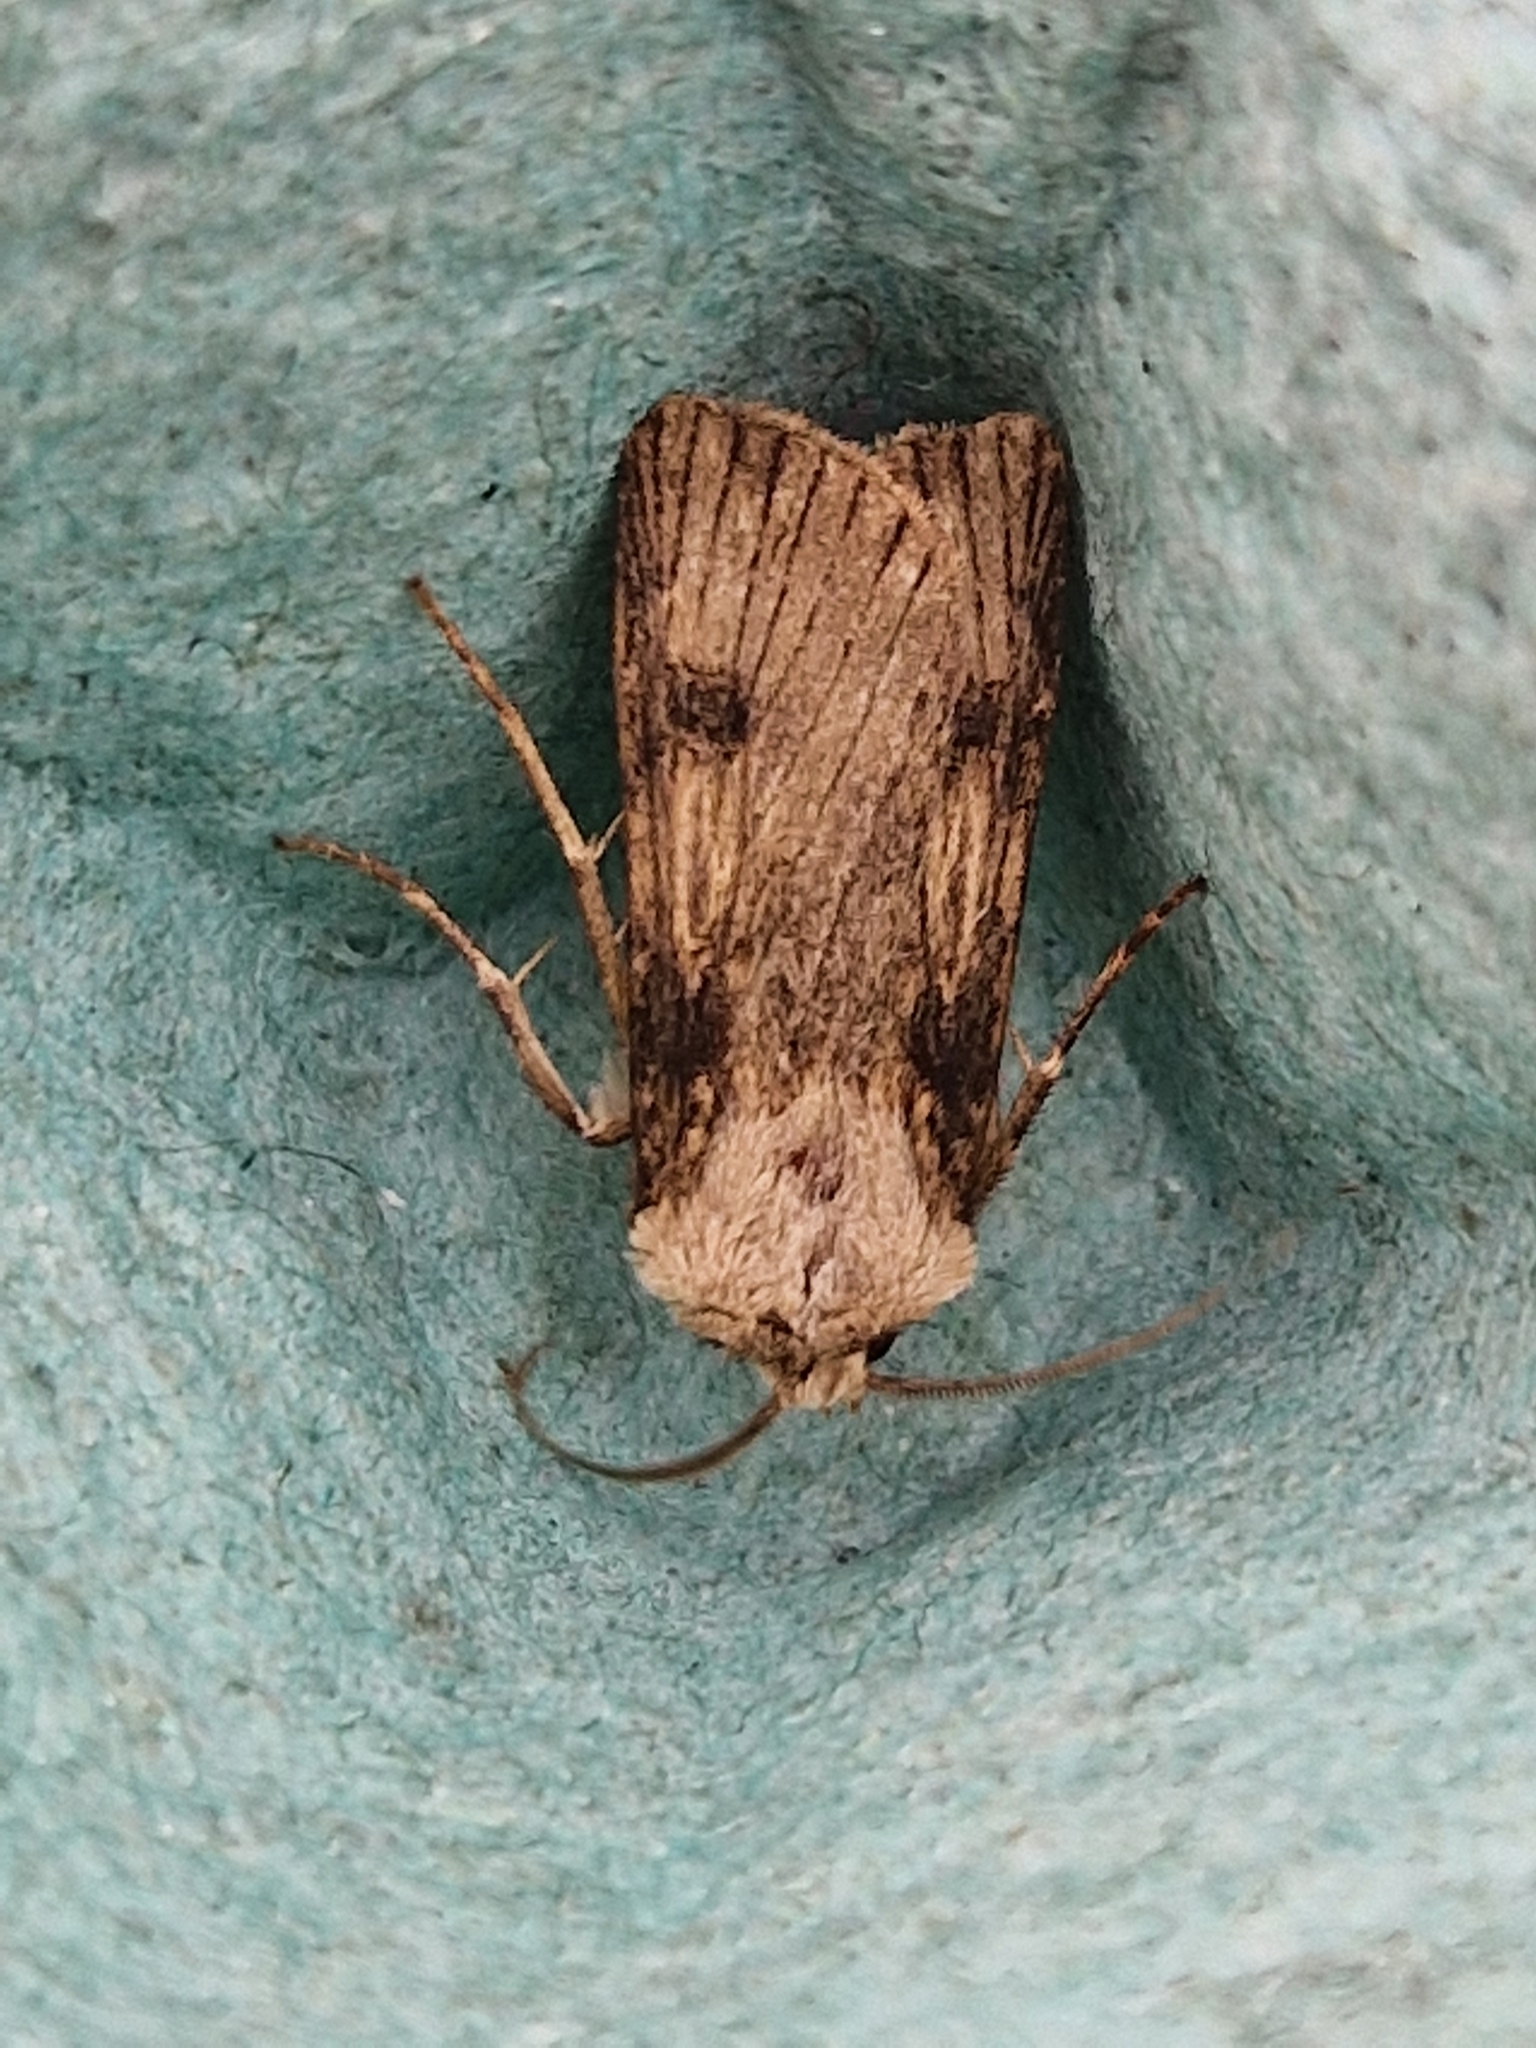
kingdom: Animalia
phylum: Arthropoda
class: Insecta
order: Lepidoptera
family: Noctuidae
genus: Agrotis
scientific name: Agrotis puta
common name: Shuttle-shaped dart
